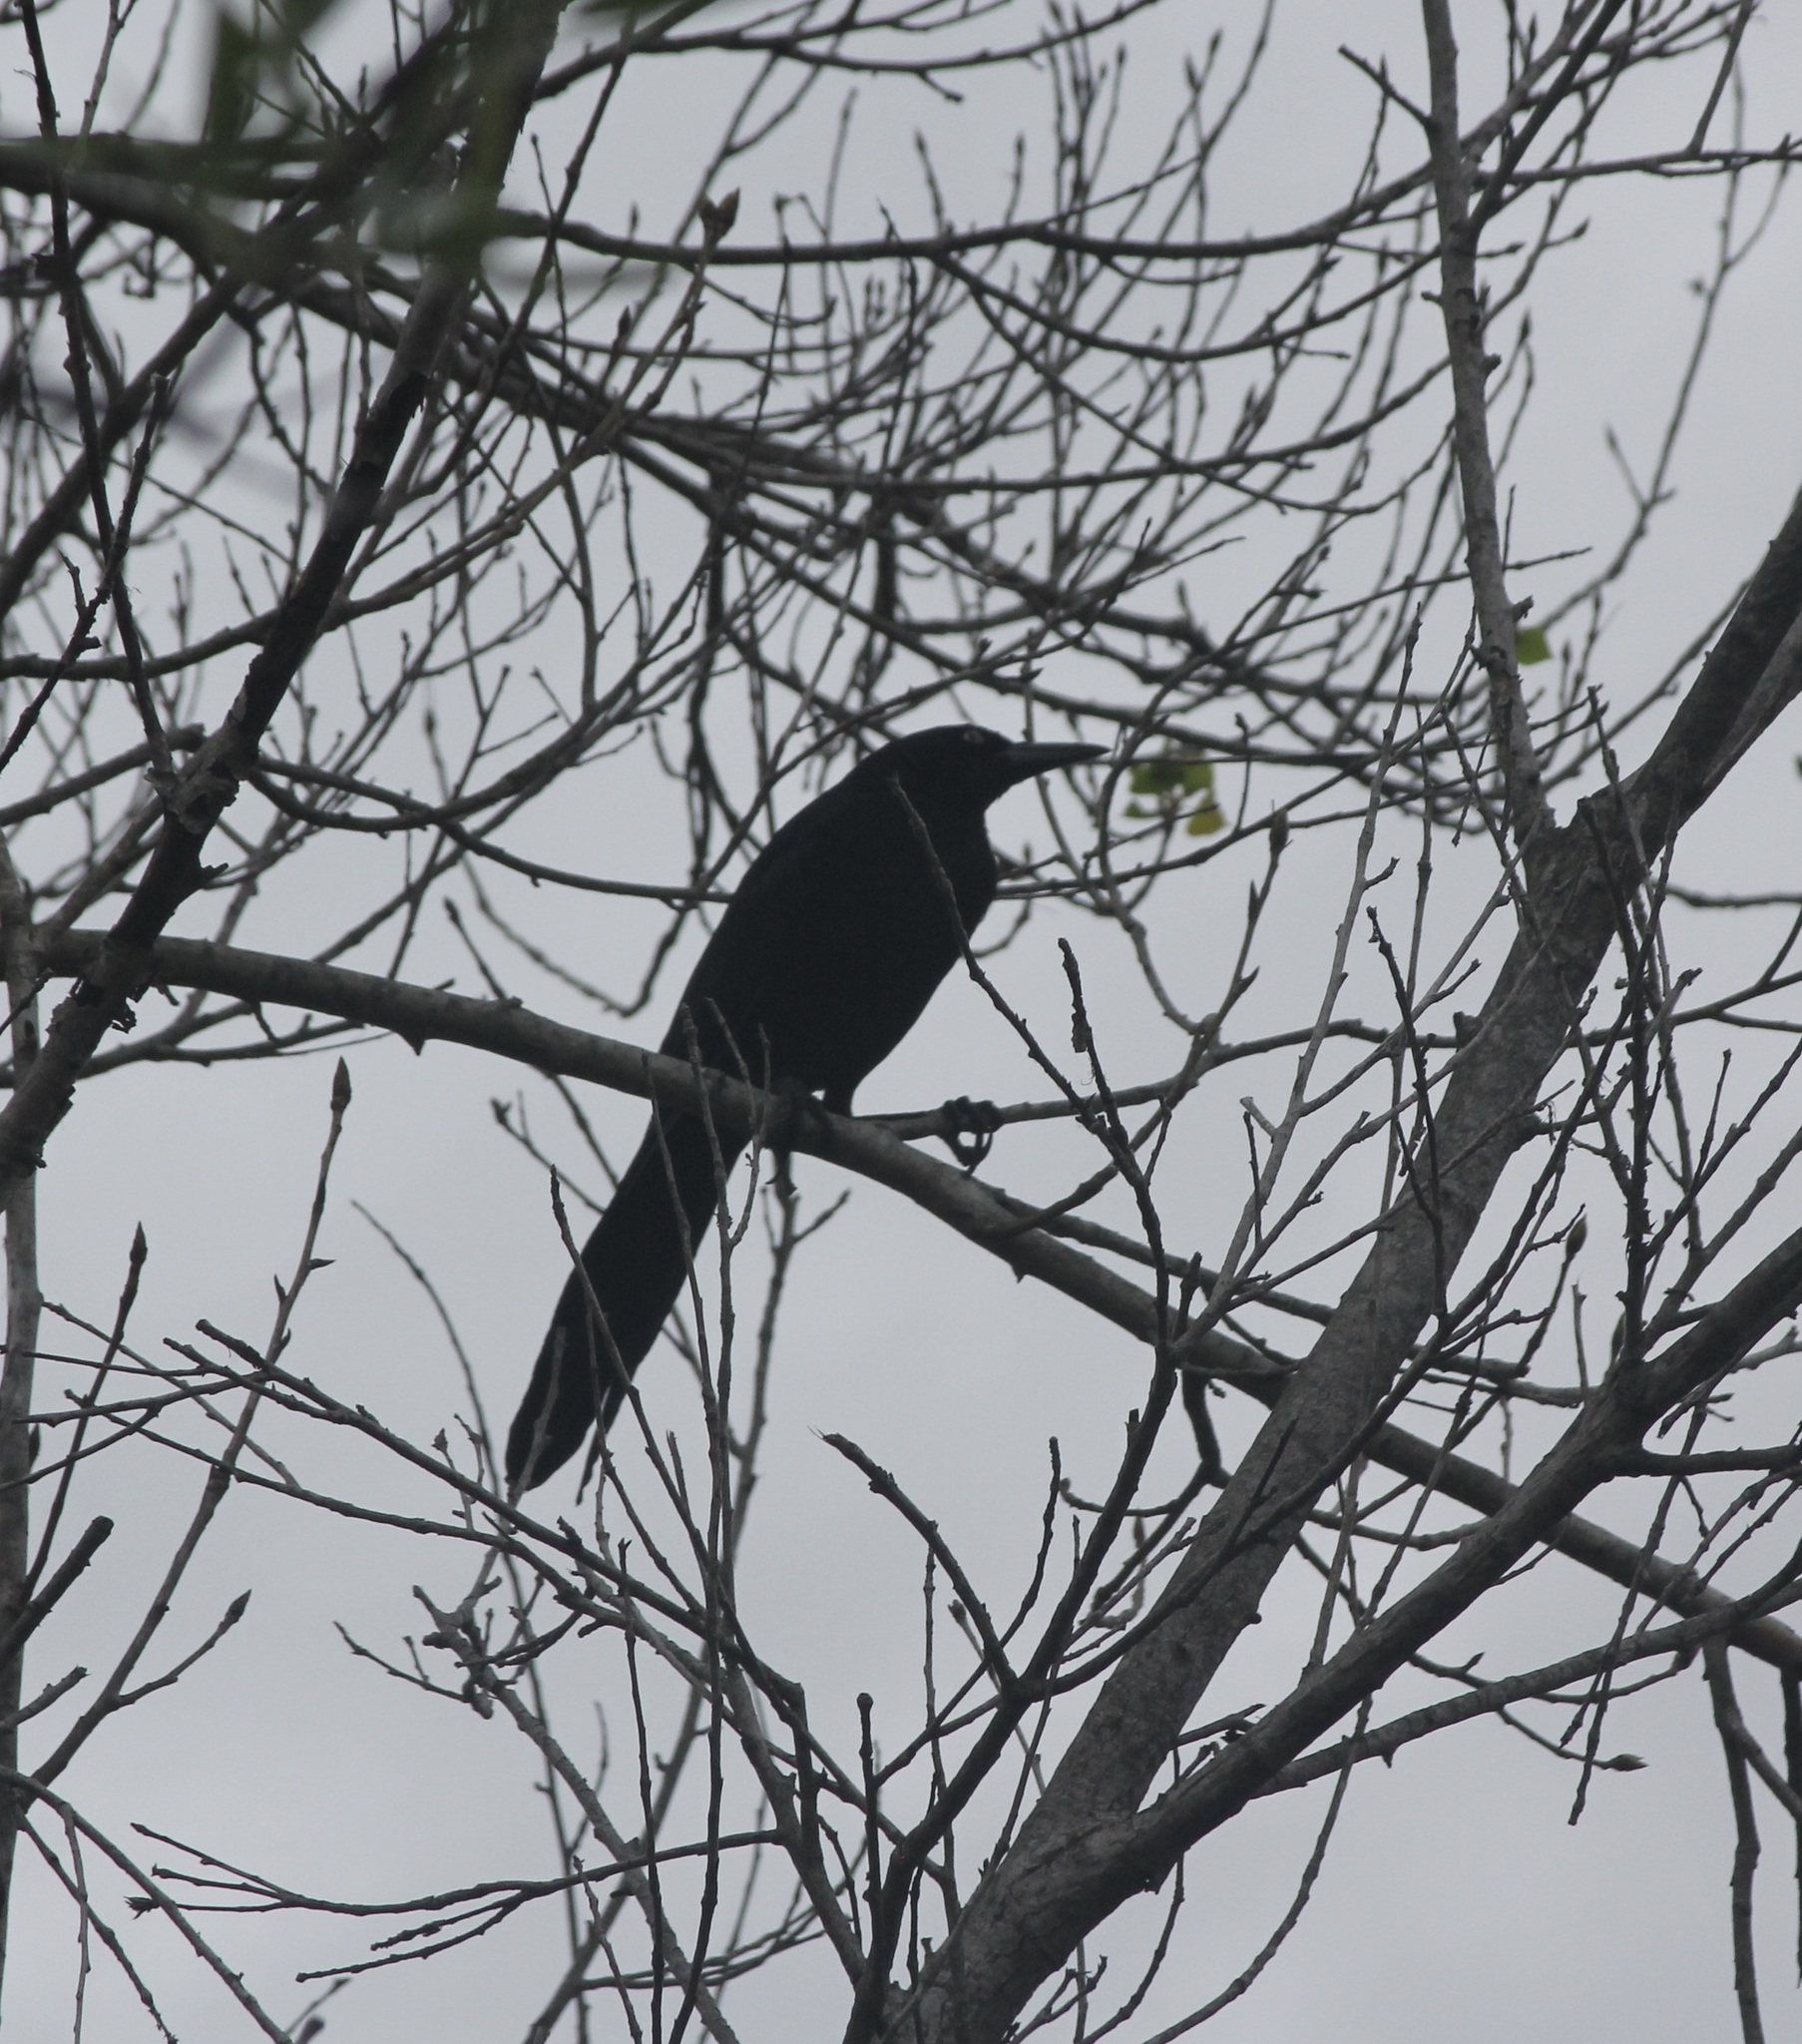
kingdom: Animalia
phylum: Chordata
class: Aves
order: Passeriformes
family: Icteridae
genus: Quiscalus
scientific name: Quiscalus mexicanus
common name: Great-tailed grackle
